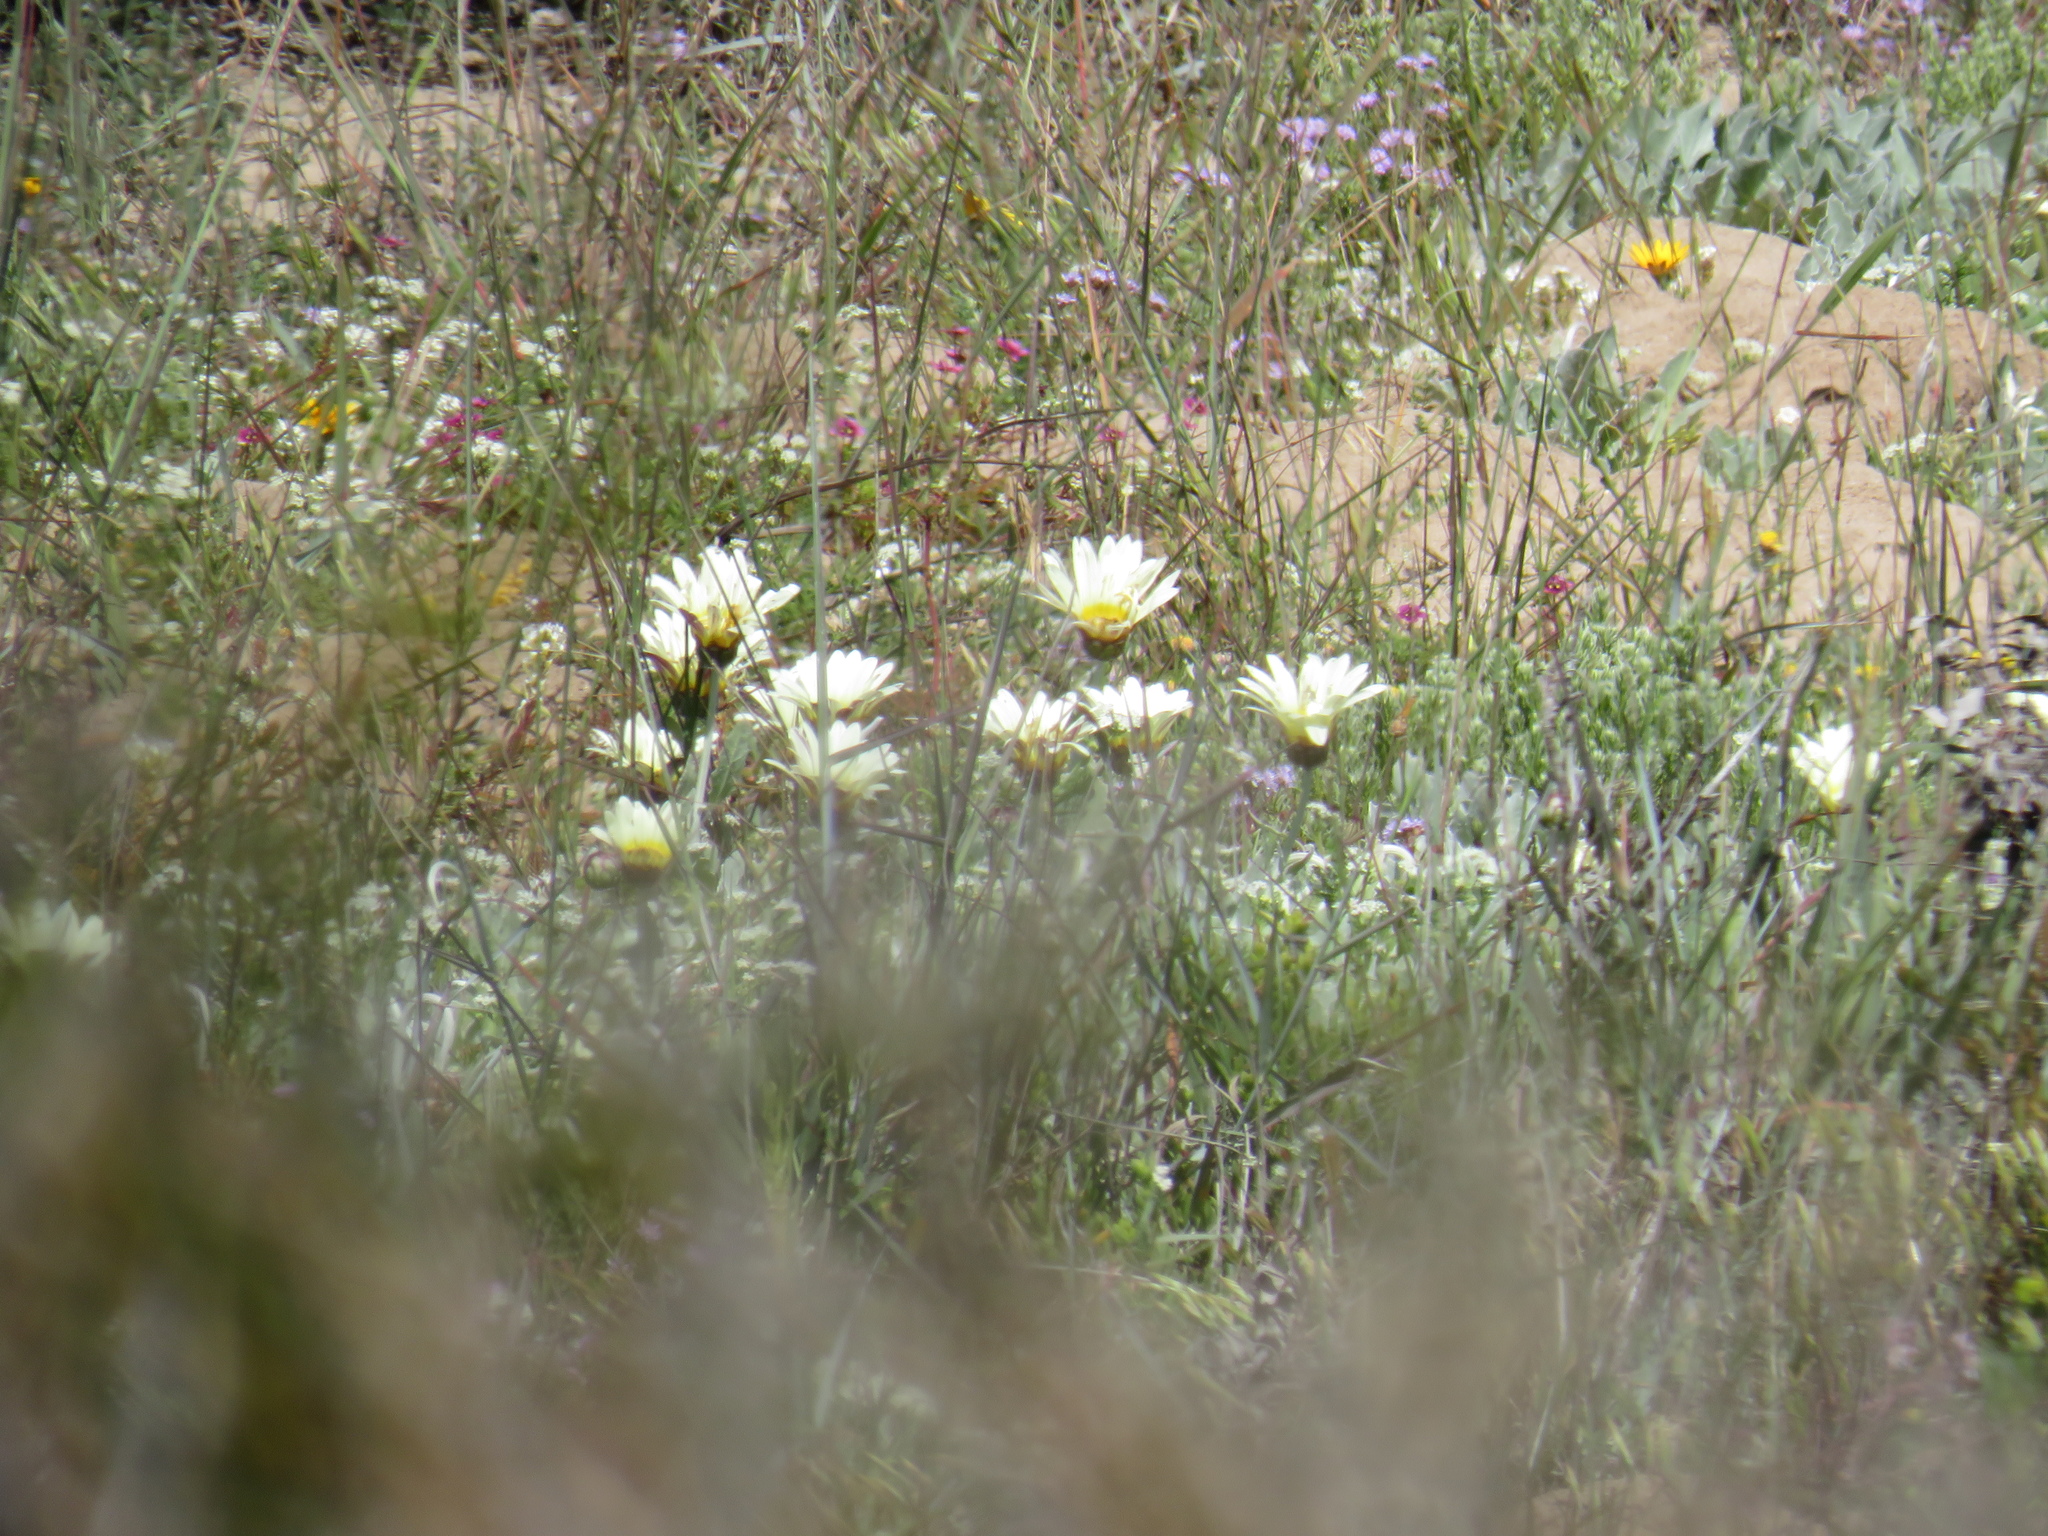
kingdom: Plantae
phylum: Tracheophyta
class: Magnoliopsida
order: Asterales
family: Asteraceae
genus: Arctotis
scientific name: Arctotis stoechadifolia
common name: African daisy
